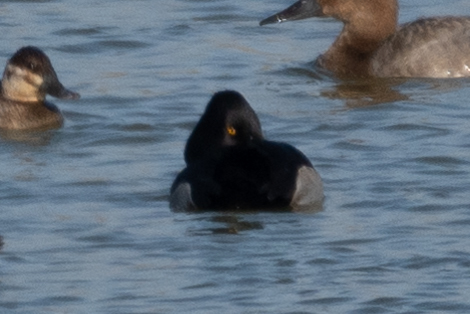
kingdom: Animalia
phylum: Chordata
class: Aves
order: Anseriformes
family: Anatidae
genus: Aythya
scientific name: Aythya collaris
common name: Ring-necked duck
